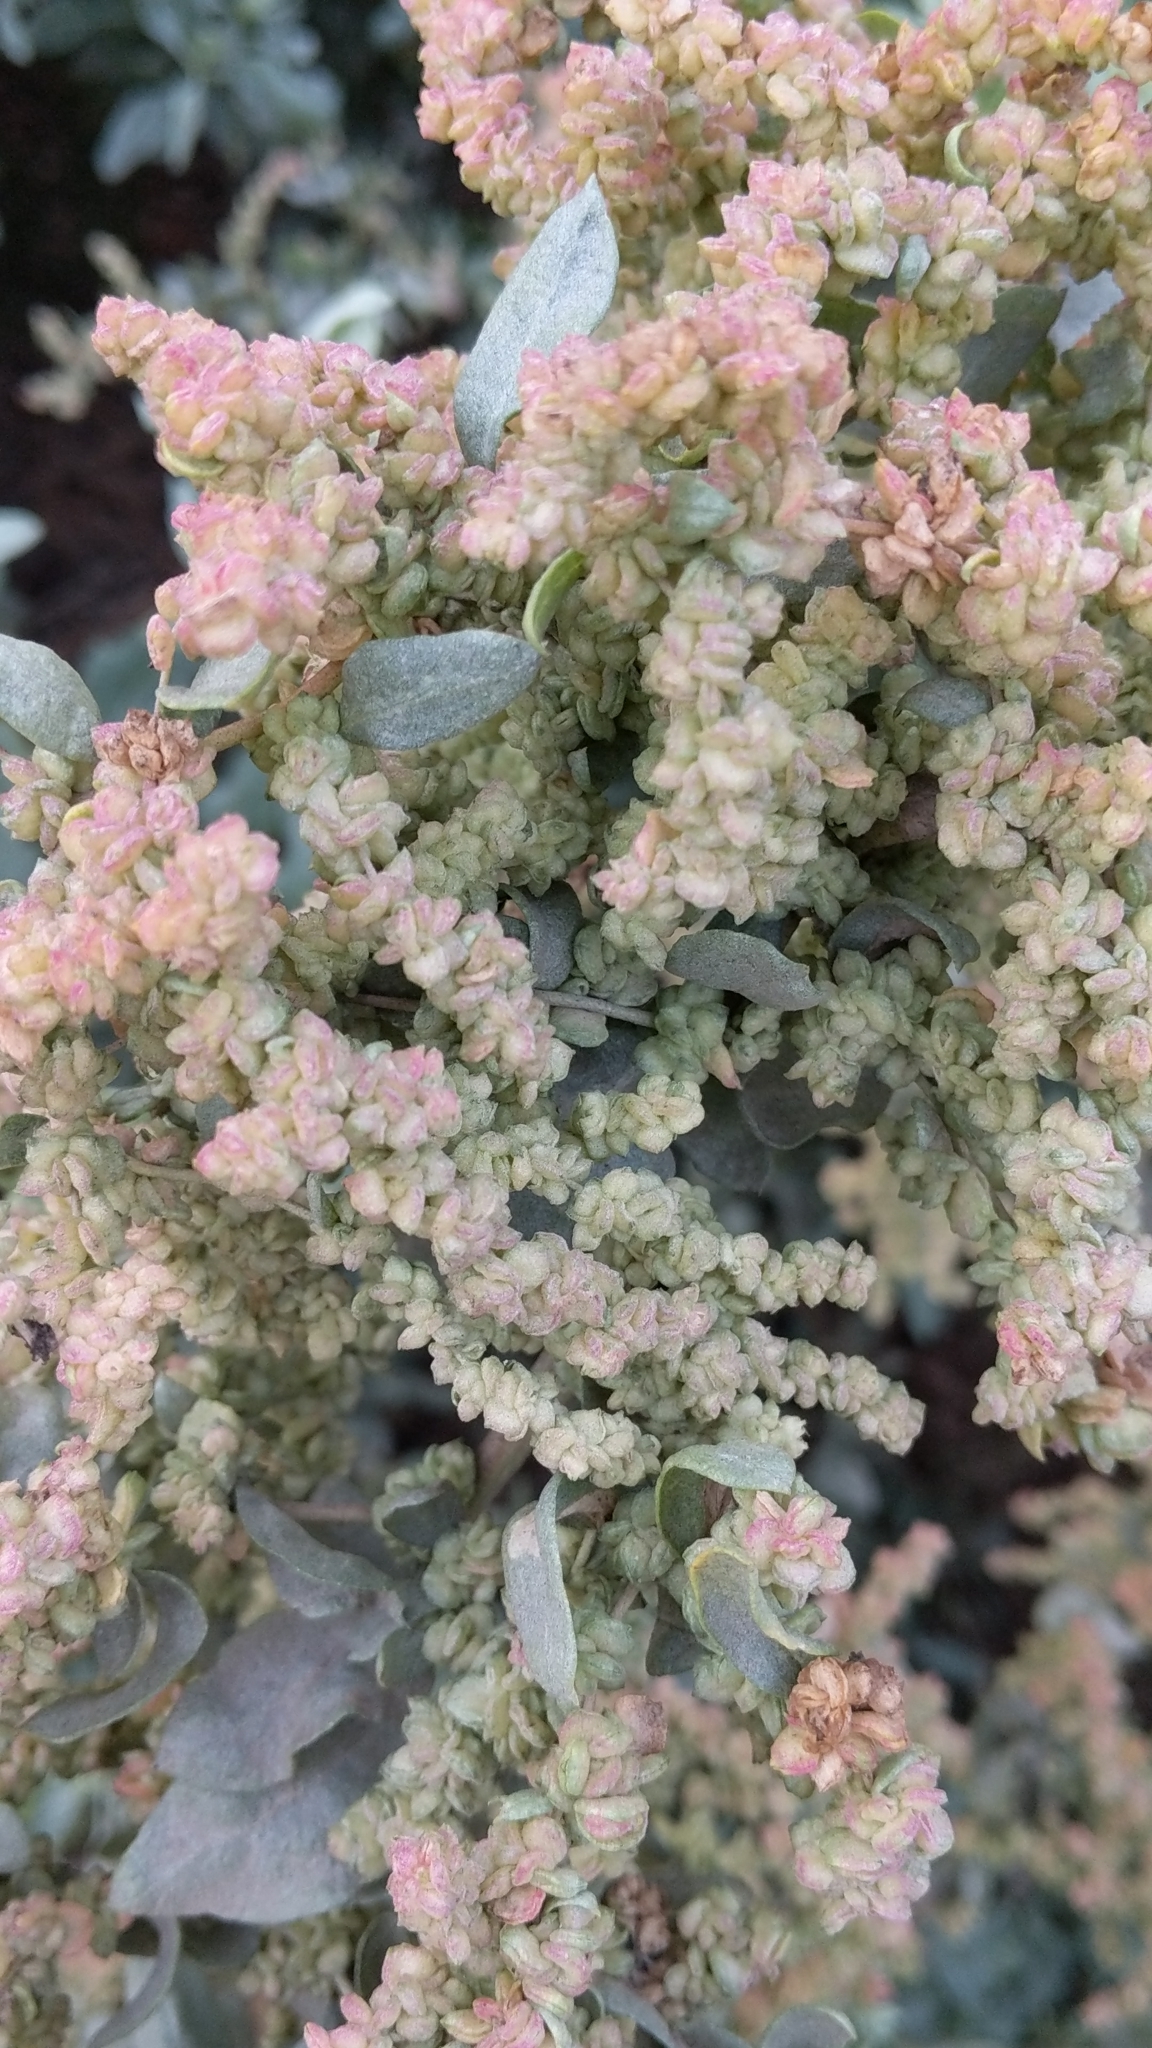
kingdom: Plantae
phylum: Tracheophyta
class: Magnoliopsida
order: Caryophyllales
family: Amaranthaceae
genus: Atriplex
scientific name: Atriplex lentiformis
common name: Big saltbush
